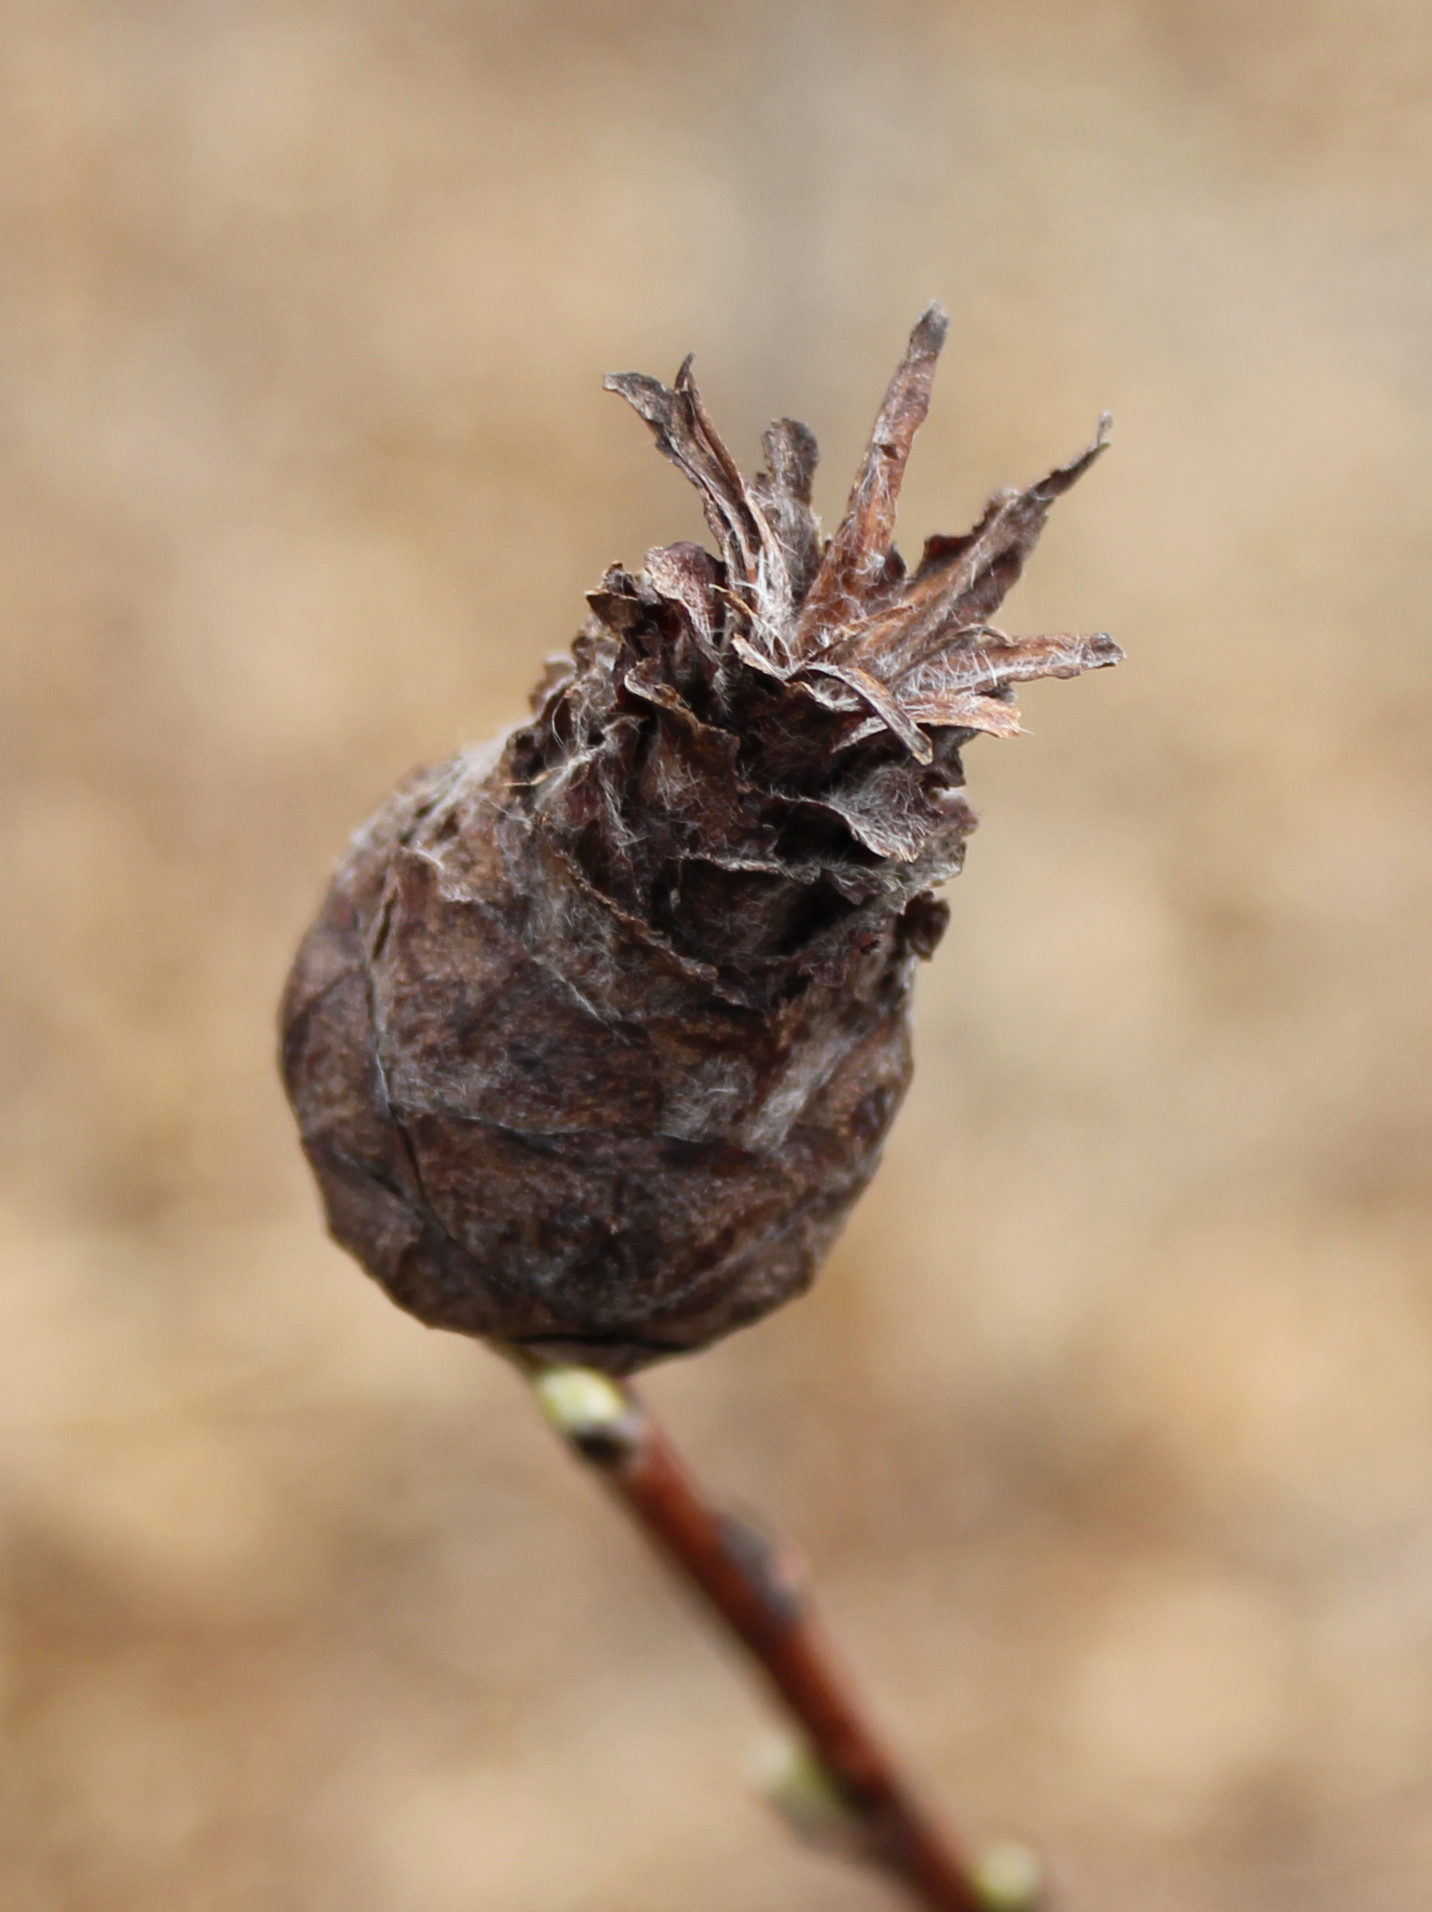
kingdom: Animalia
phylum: Arthropoda
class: Insecta
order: Diptera
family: Cecidomyiidae
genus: Rabdophaga
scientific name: Rabdophaga strobiloides
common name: Willow pinecone gall midge
